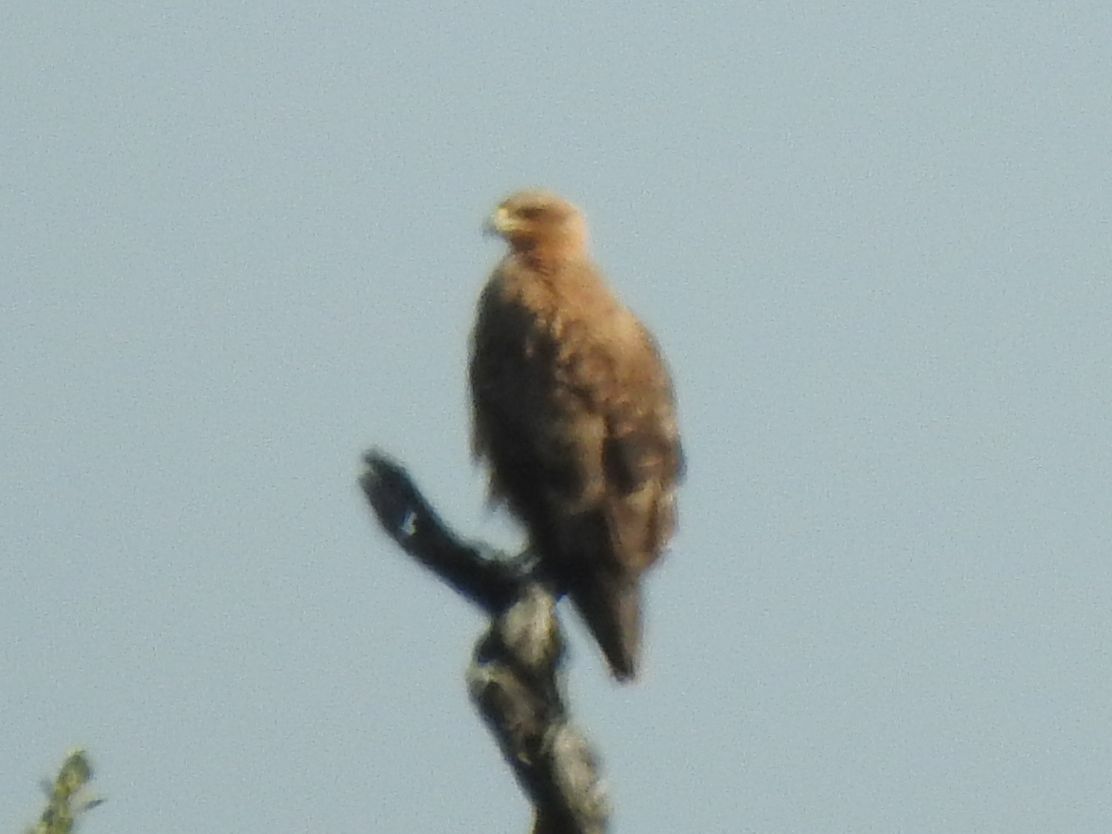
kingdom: Animalia
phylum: Chordata
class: Aves
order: Accipitriformes
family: Accipitridae
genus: Aquila
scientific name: Aquila rapax
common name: Tawny eagle
